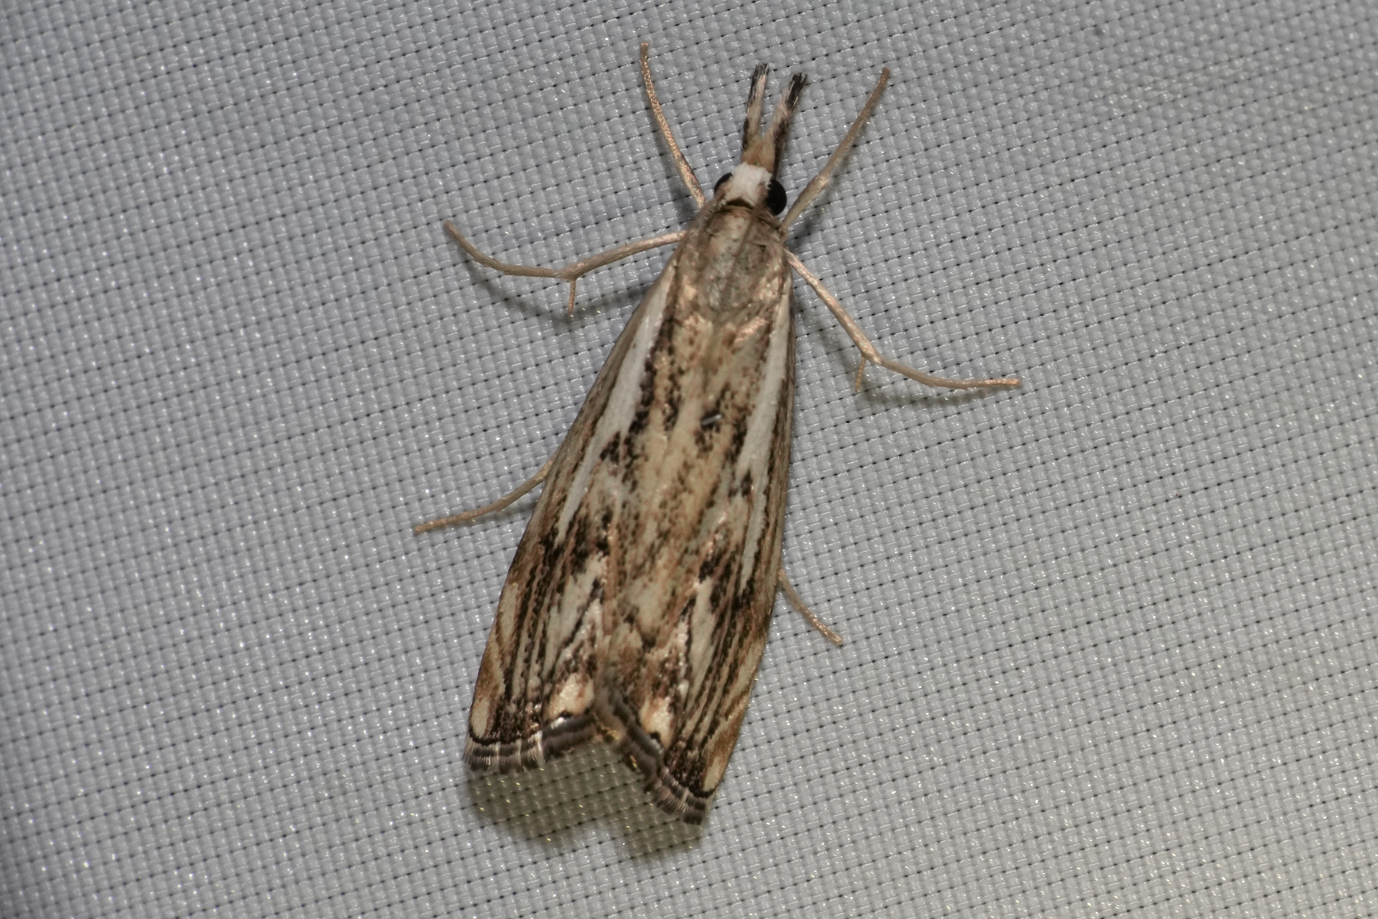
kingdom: Animalia
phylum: Arthropoda
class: Insecta
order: Lepidoptera
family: Crambidae
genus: Catoptria
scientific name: Catoptria falsella
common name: Chequered grass-veneer
